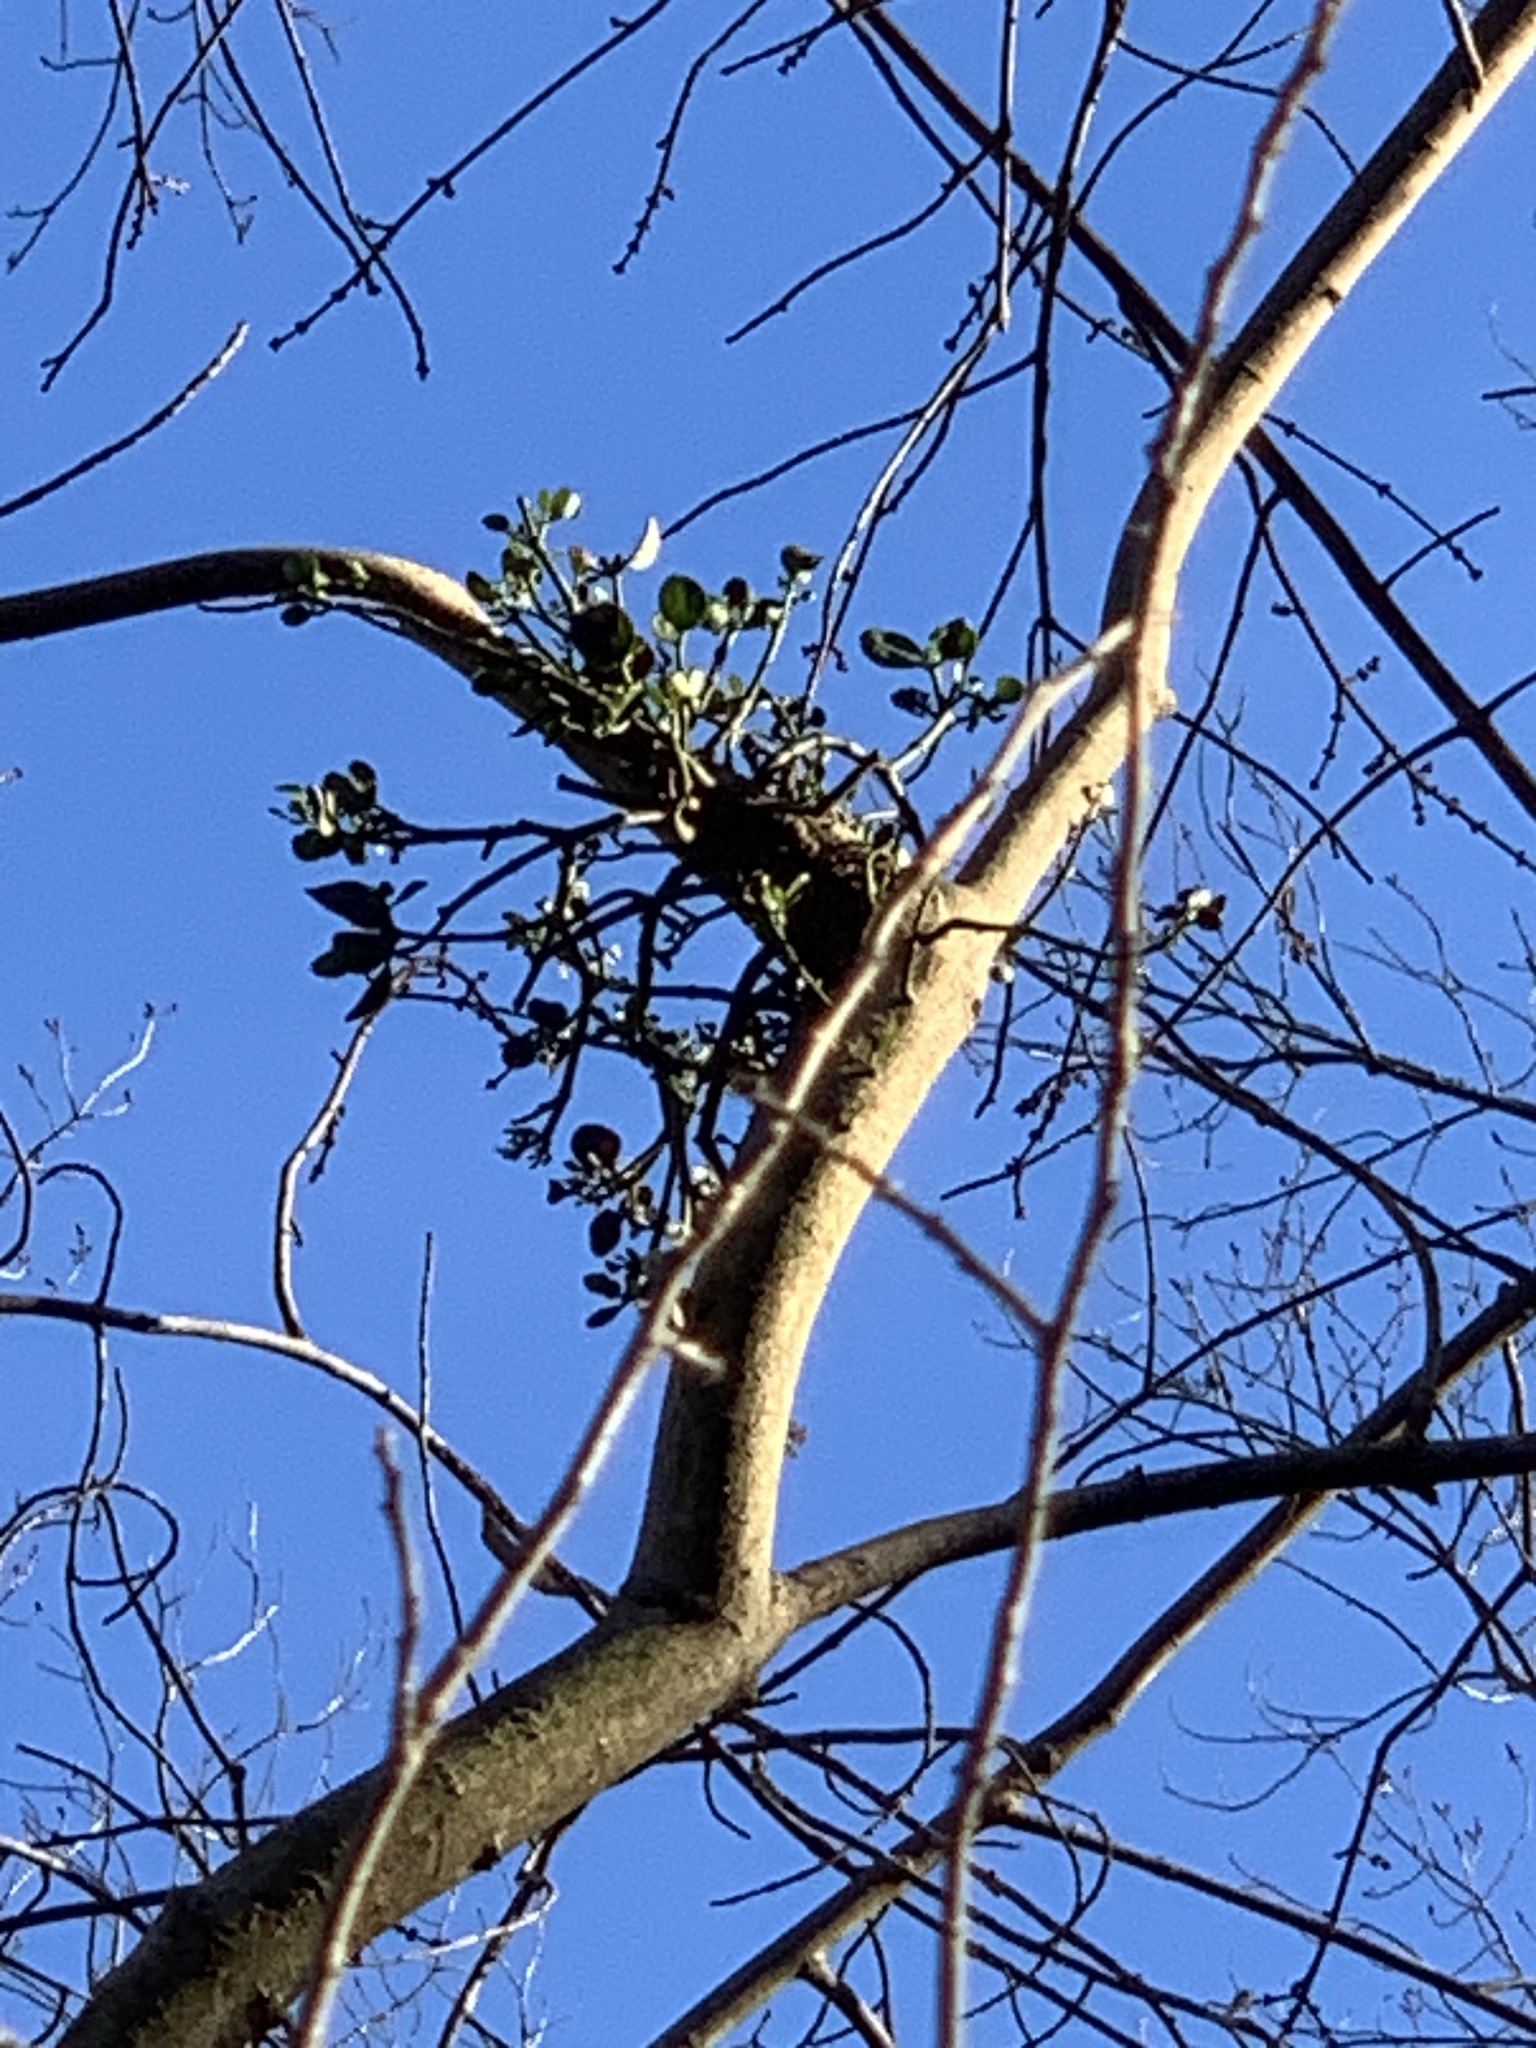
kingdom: Plantae
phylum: Tracheophyta
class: Magnoliopsida
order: Santalales
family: Viscaceae
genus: Phoradendron
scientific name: Phoradendron leucarpum
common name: Pacific mistletoe
